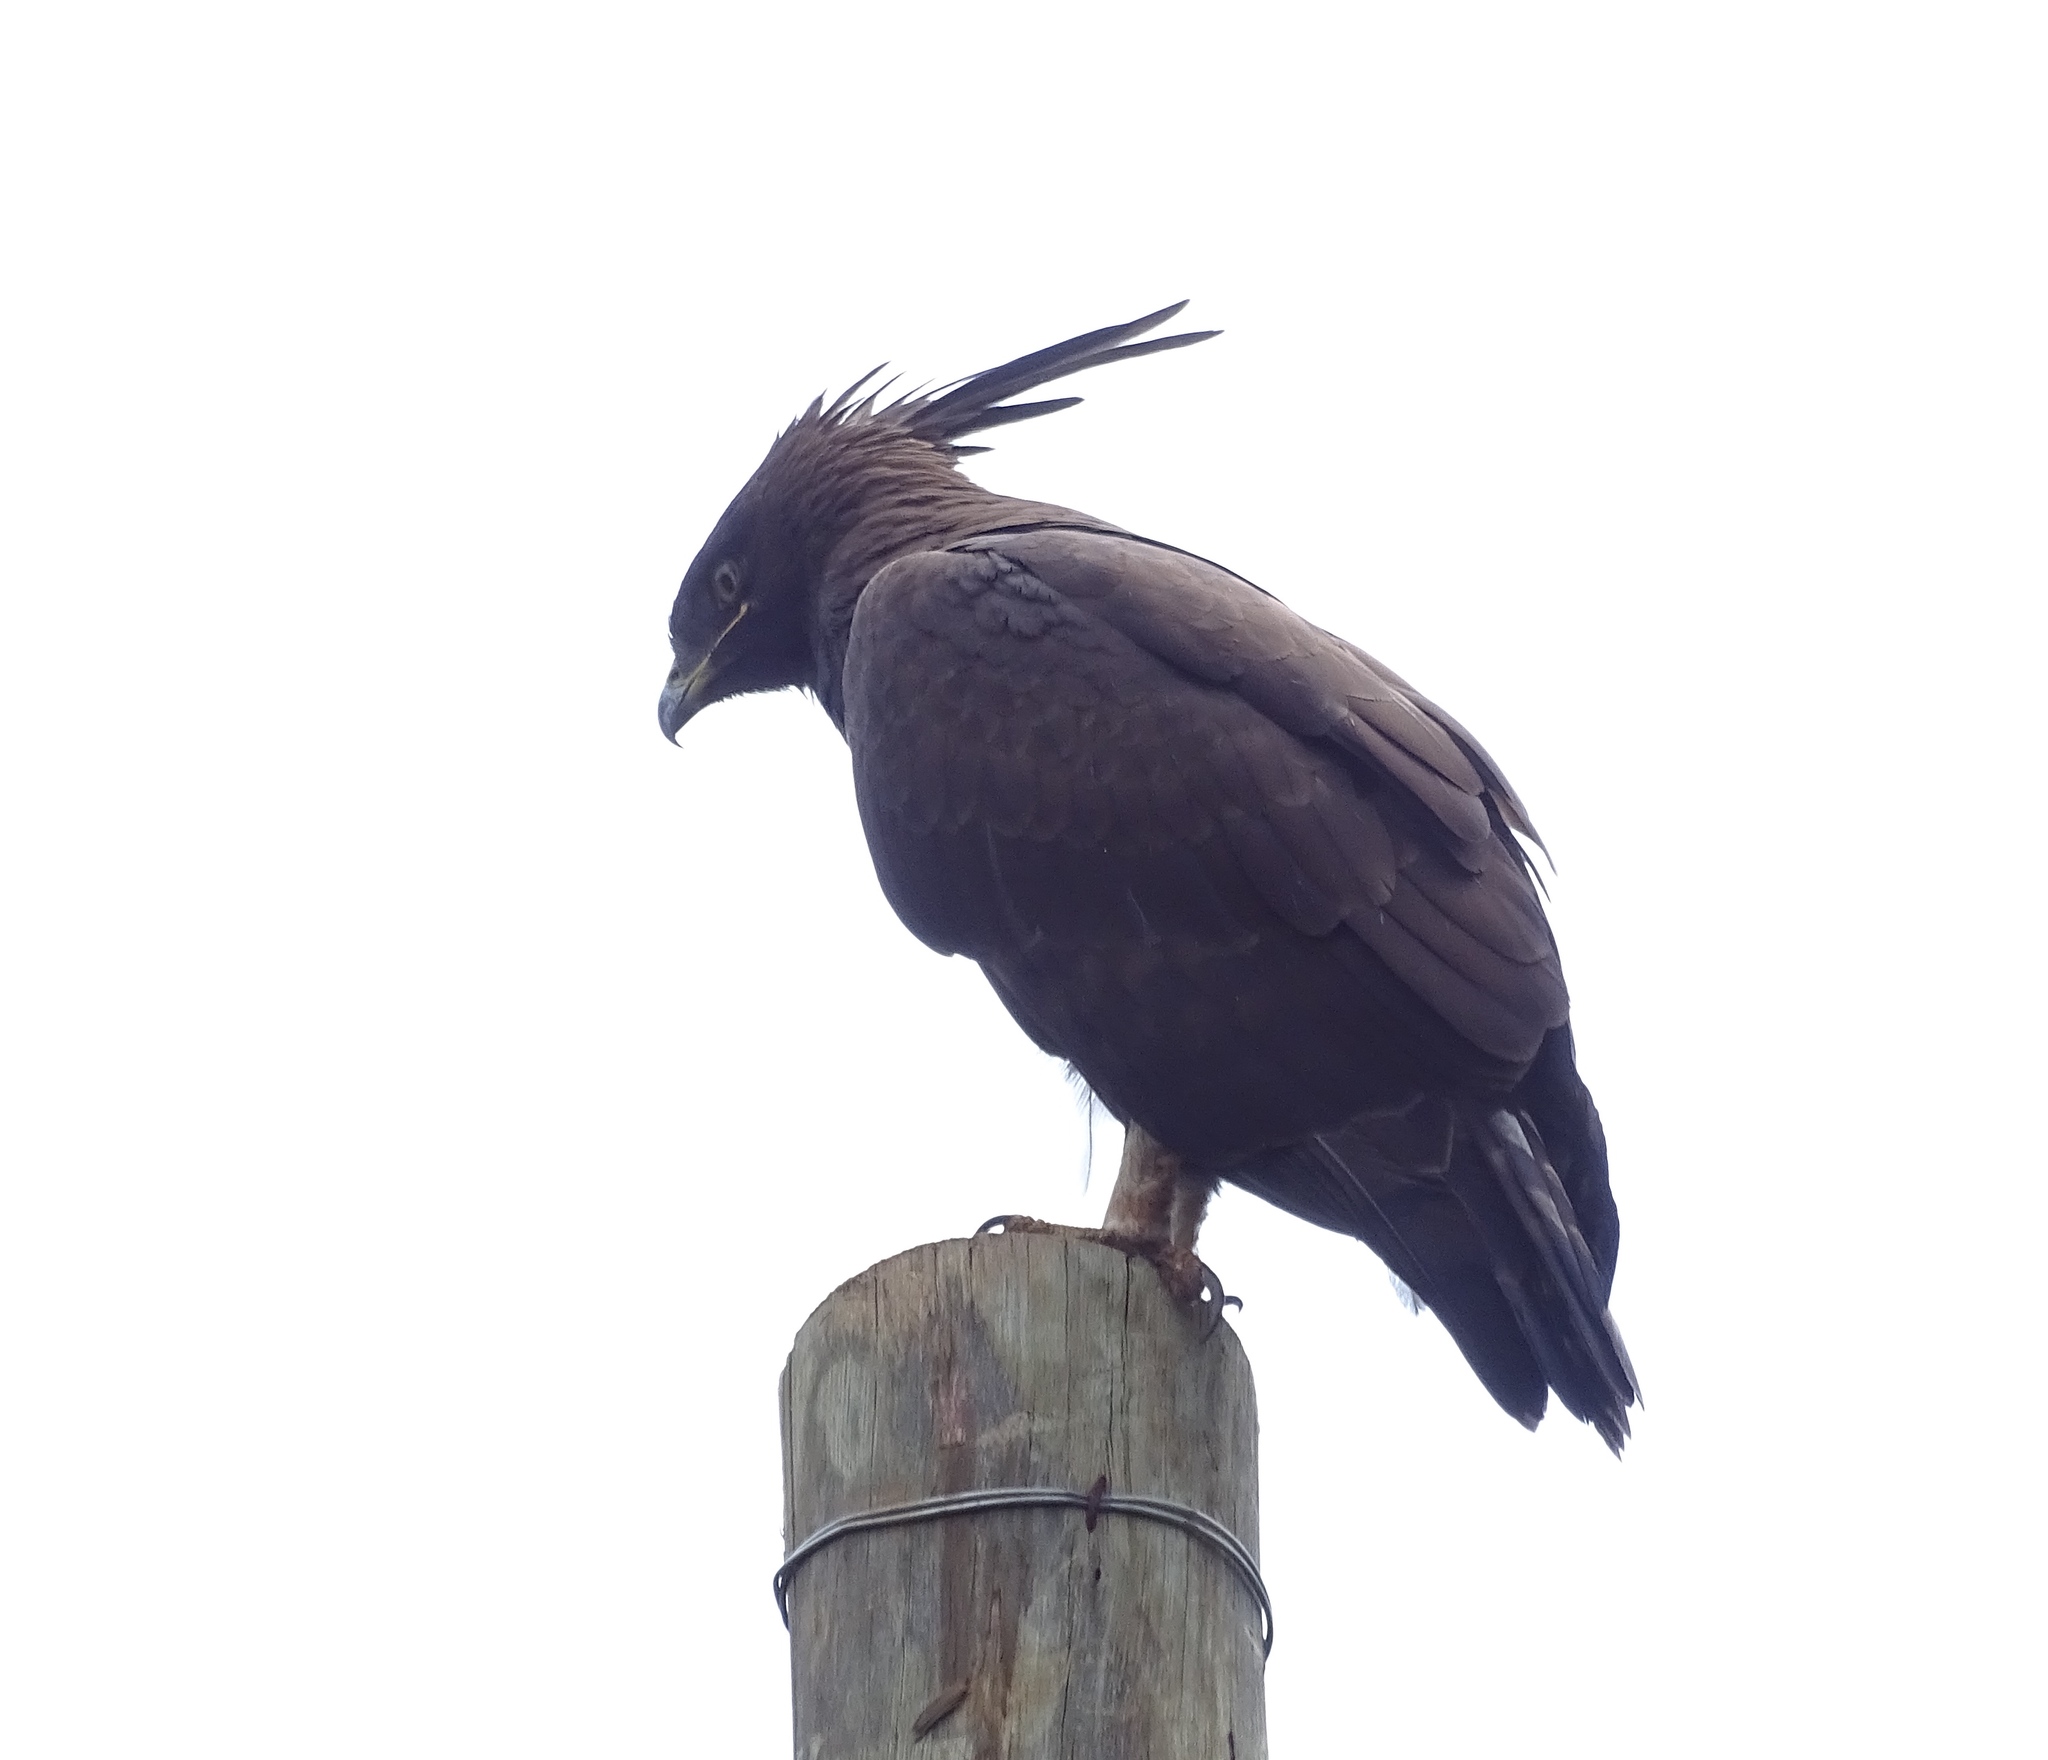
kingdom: Animalia
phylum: Chordata
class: Aves
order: Accipitriformes
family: Accipitridae
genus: Lophaetus
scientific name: Lophaetus occipitalis
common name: Long-crested eagle
